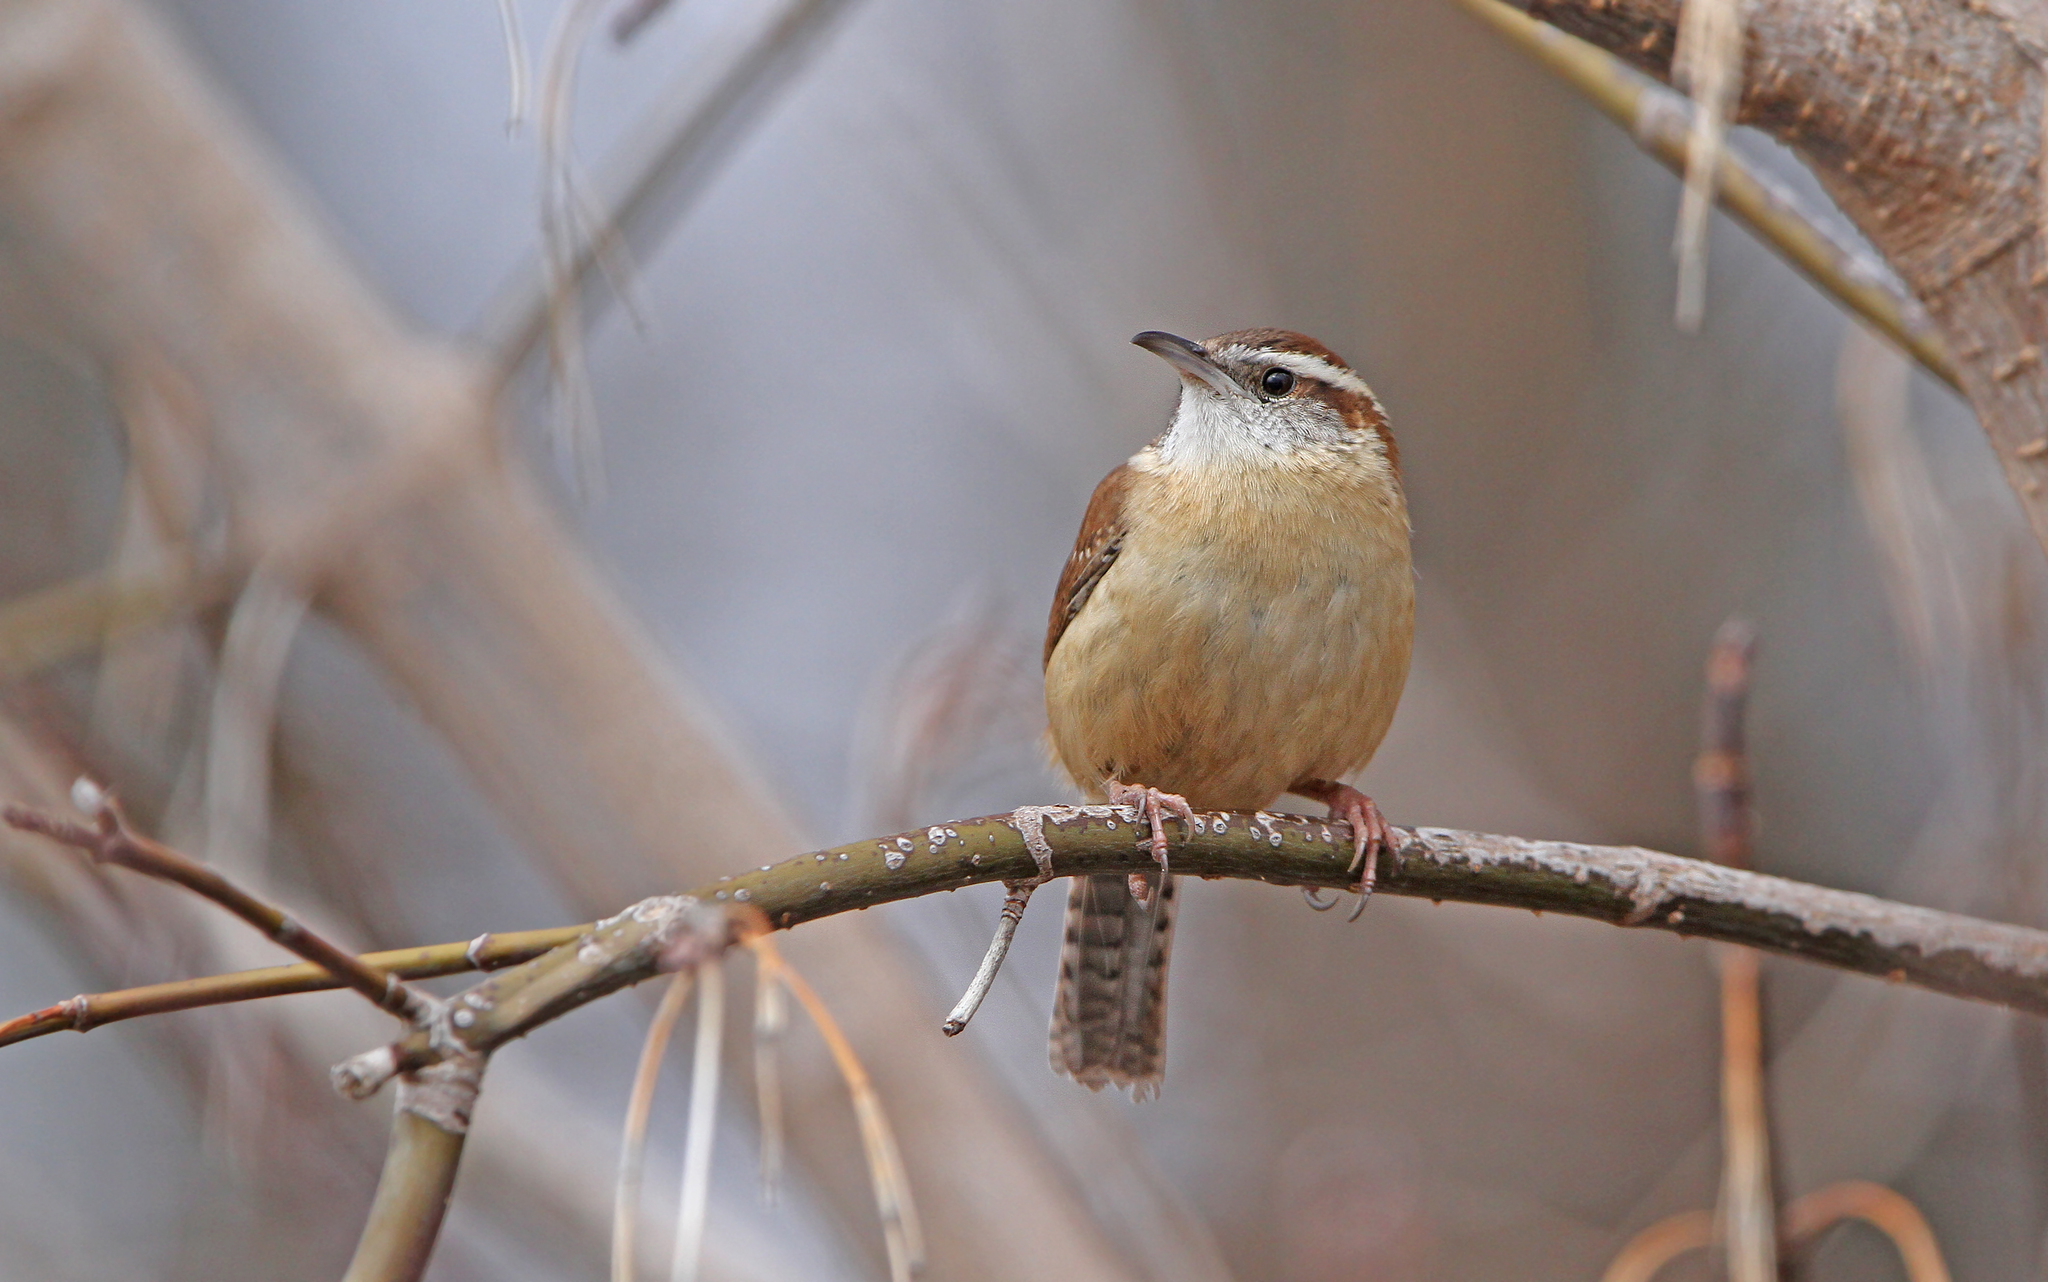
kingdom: Animalia
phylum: Chordata
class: Aves
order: Passeriformes
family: Troglodytidae
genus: Thryothorus
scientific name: Thryothorus ludovicianus
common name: Carolina wren
